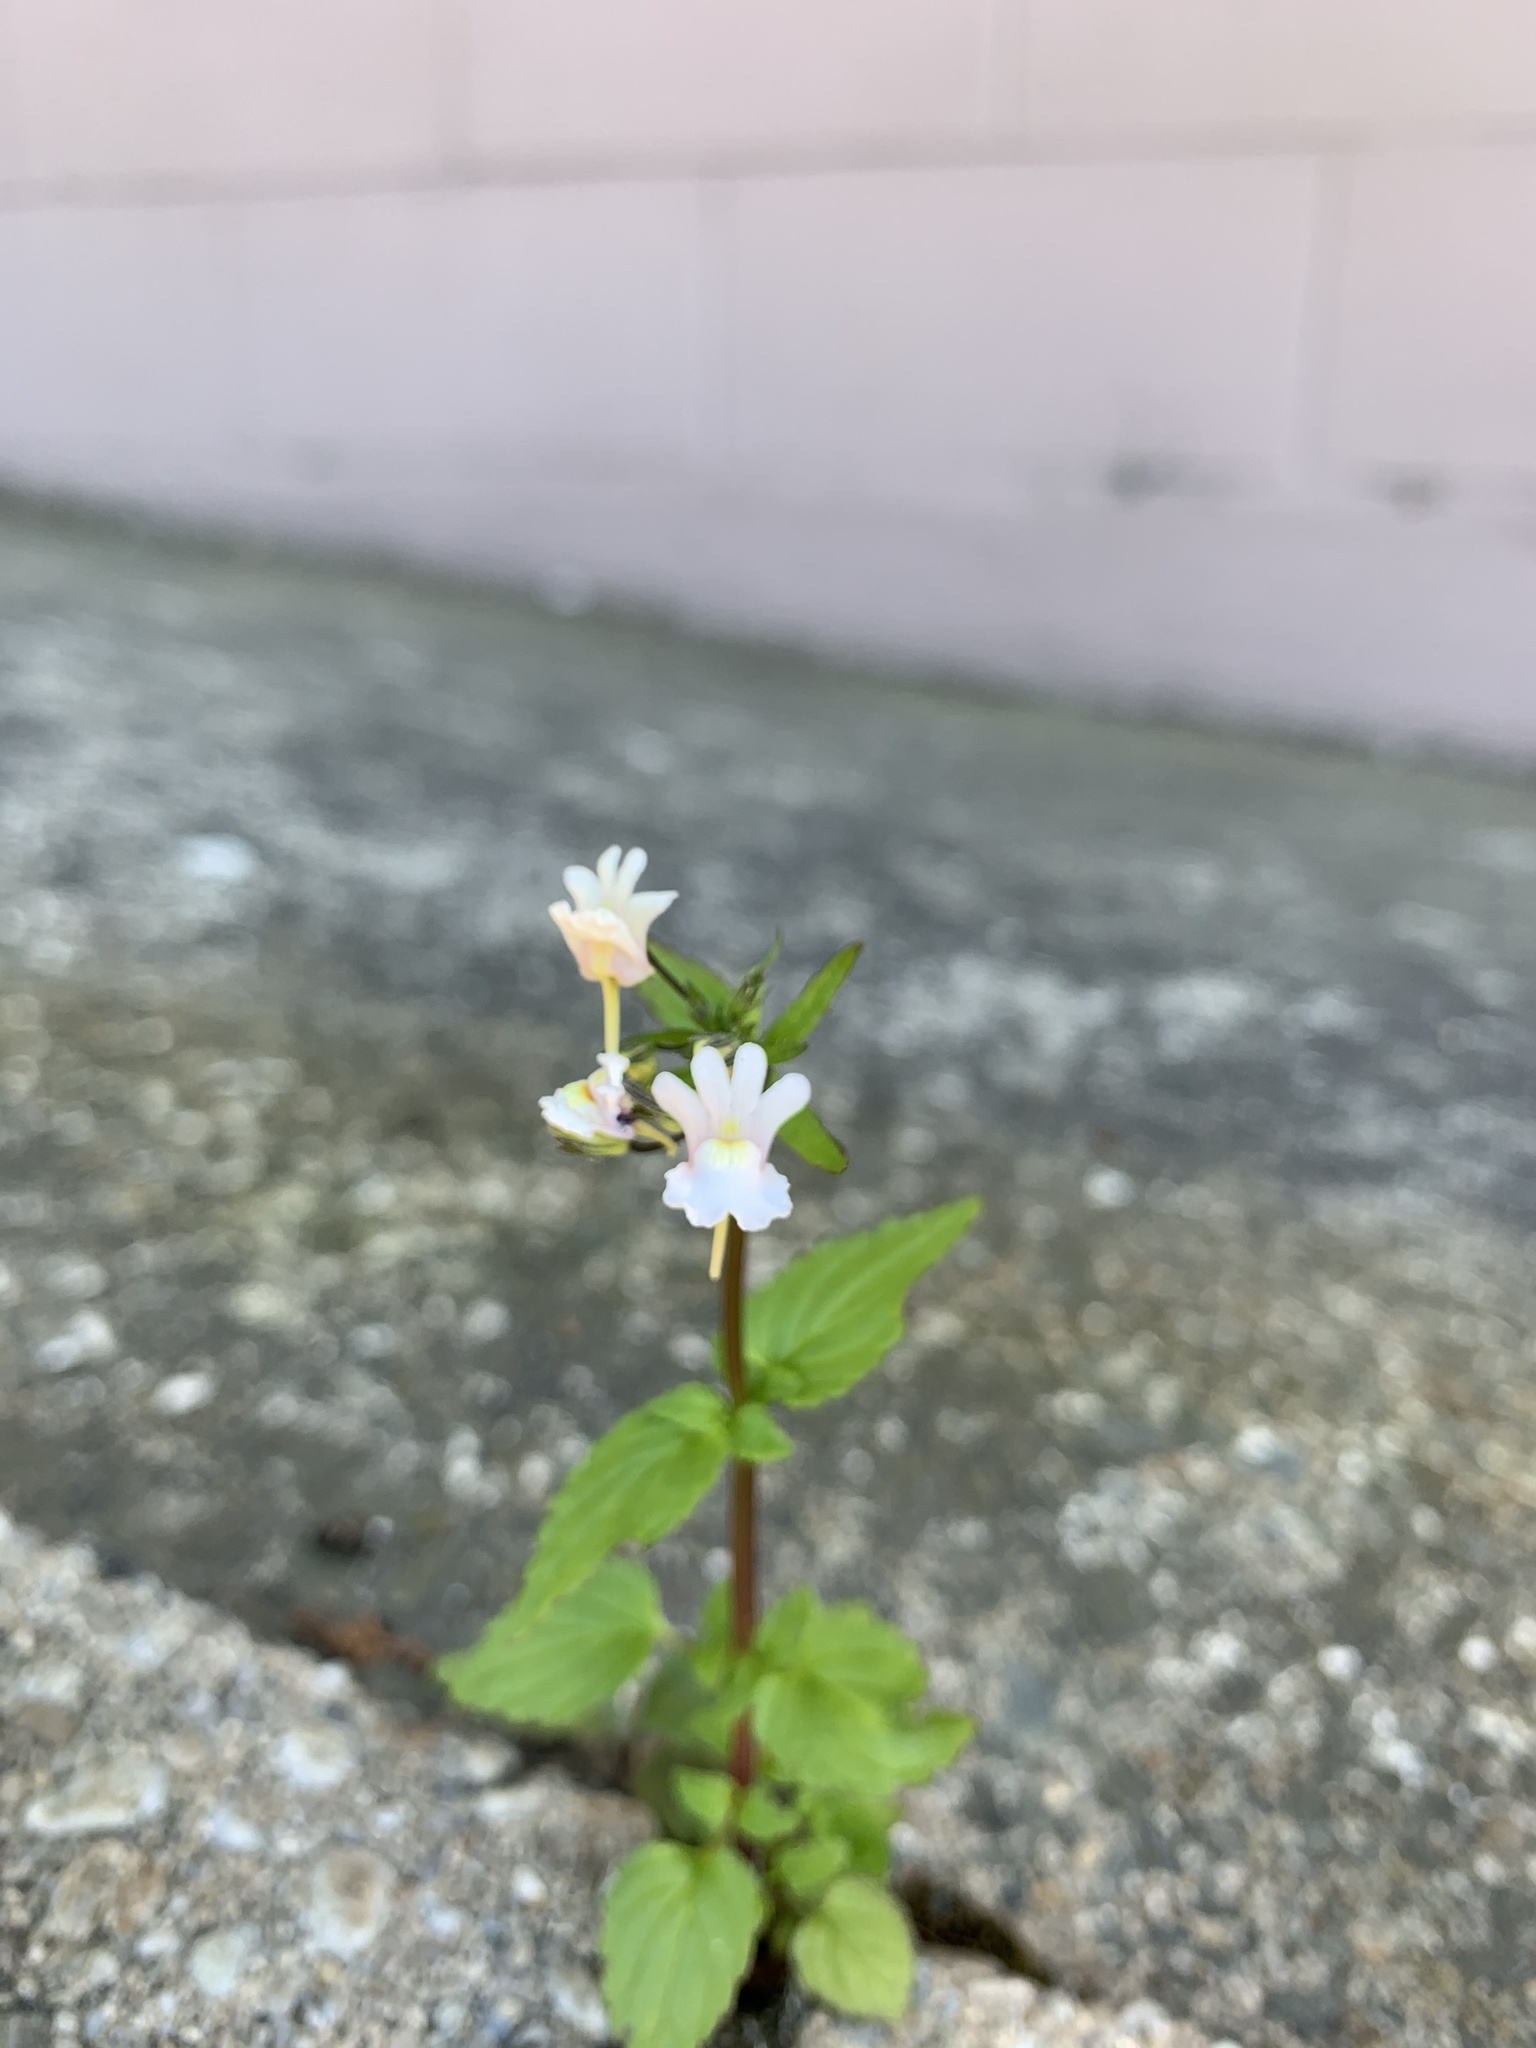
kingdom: Plantae
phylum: Tracheophyta
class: Magnoliopsida
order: Lamiales
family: Scrophulariaceae
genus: Nemesia
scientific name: Nemesia floribunda
